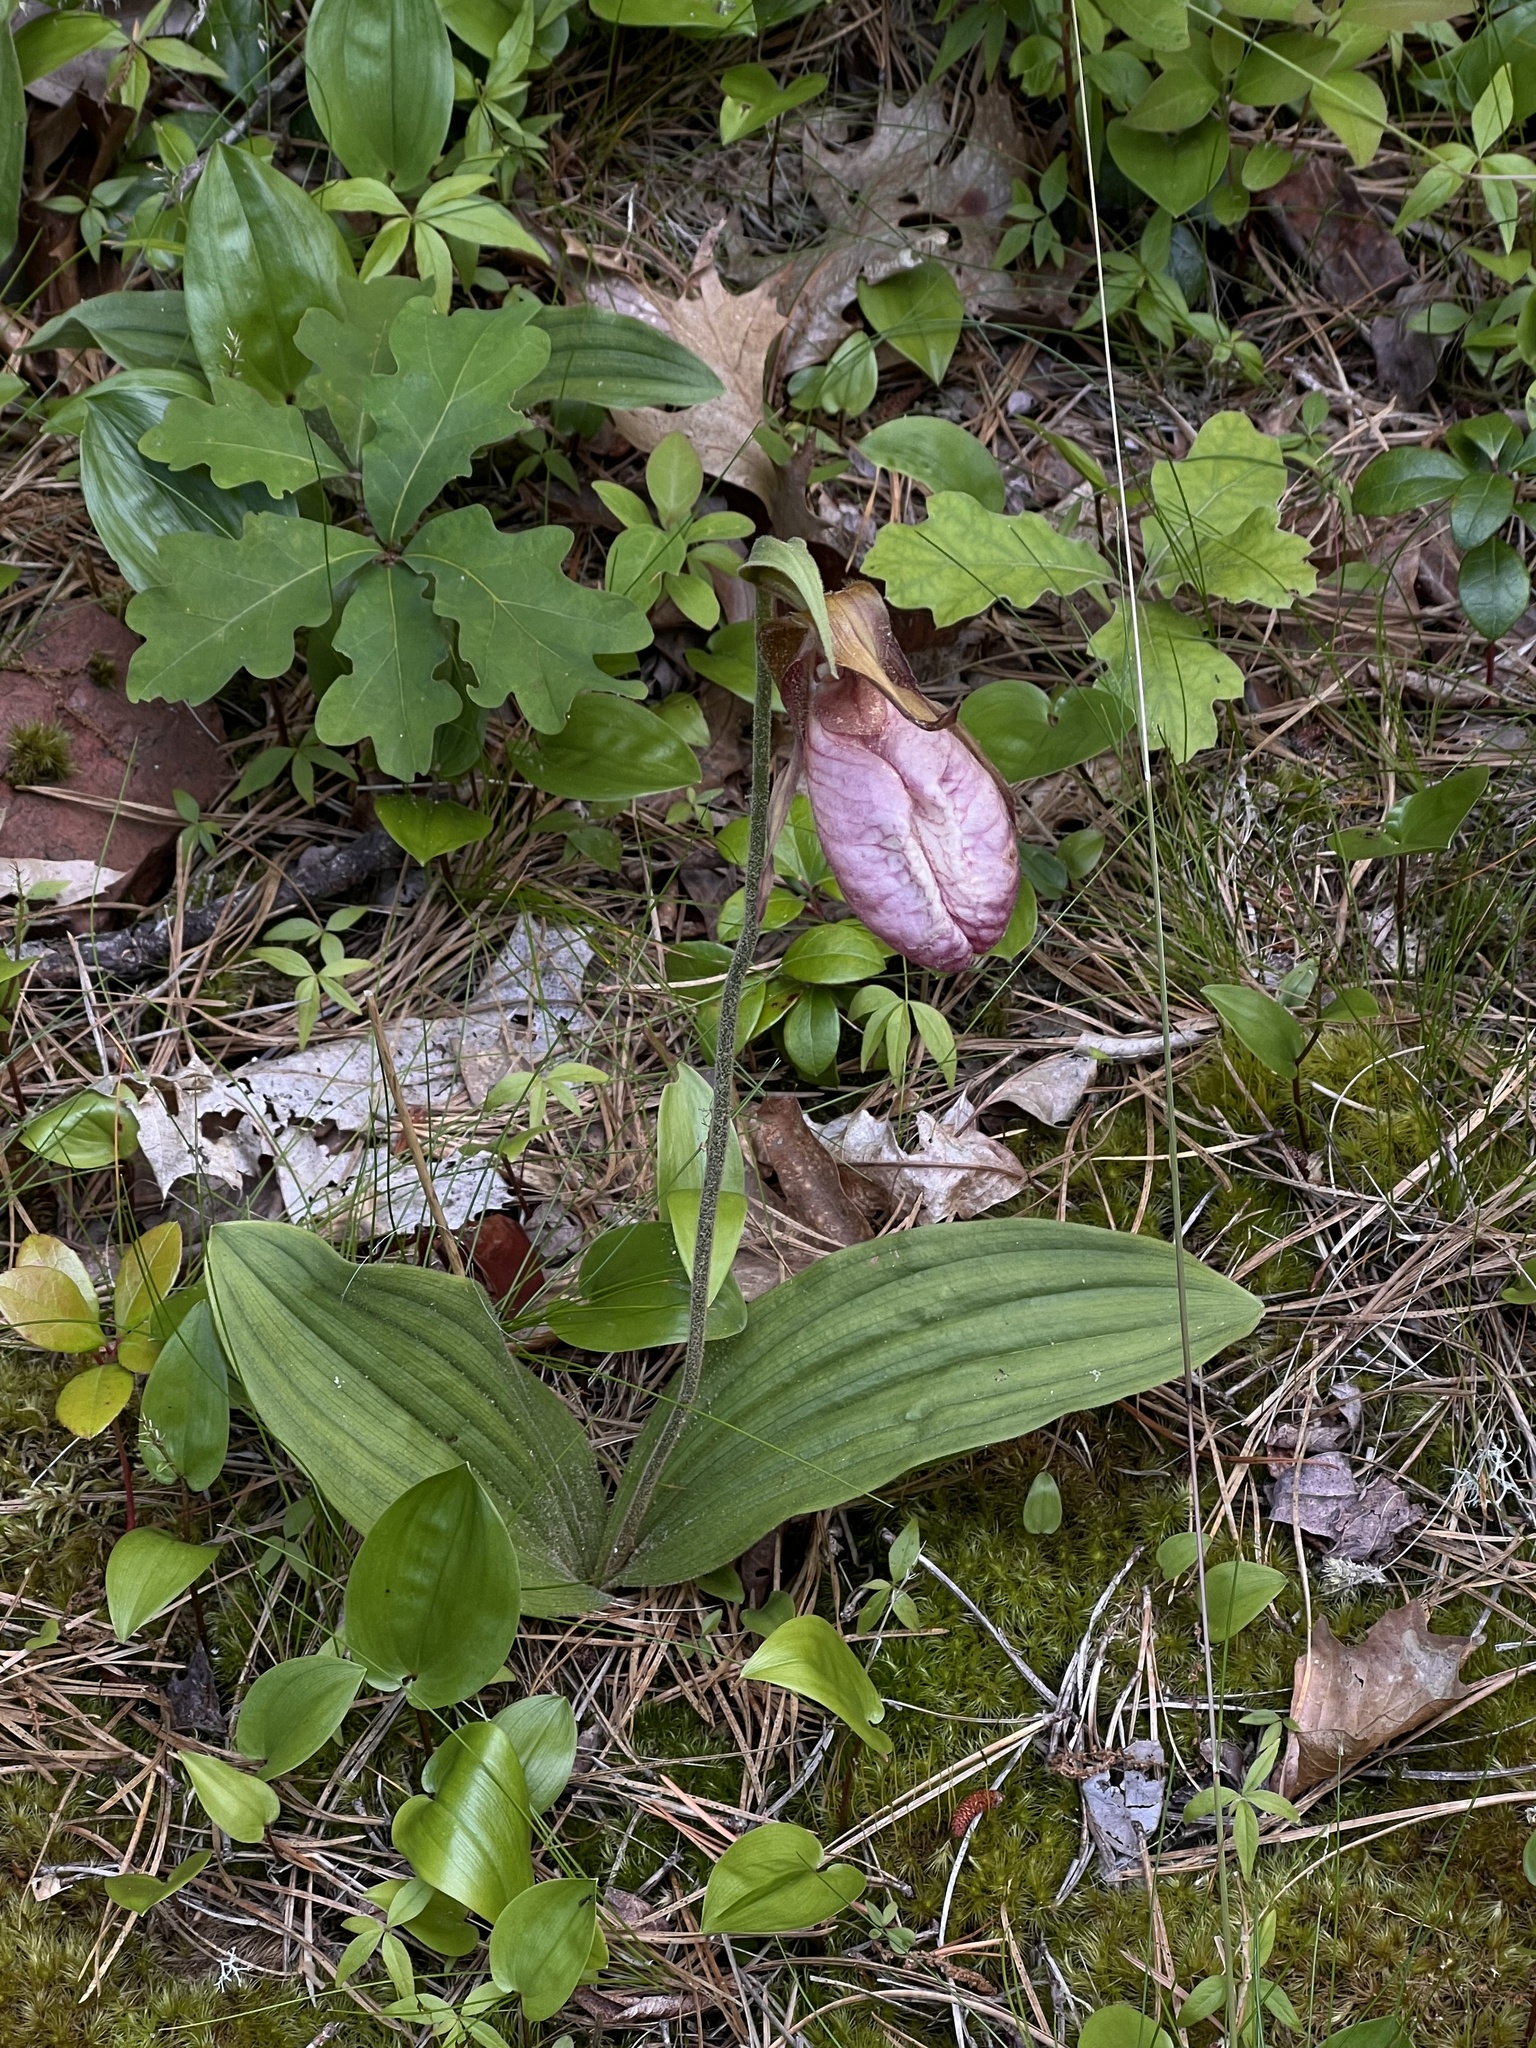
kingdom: Plantae
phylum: Tracheophyta
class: Liliopsida
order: Asparagales
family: Orchidaceae
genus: Cypripedium
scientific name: Cypripedium acaule
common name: Pink lady's-slipper
